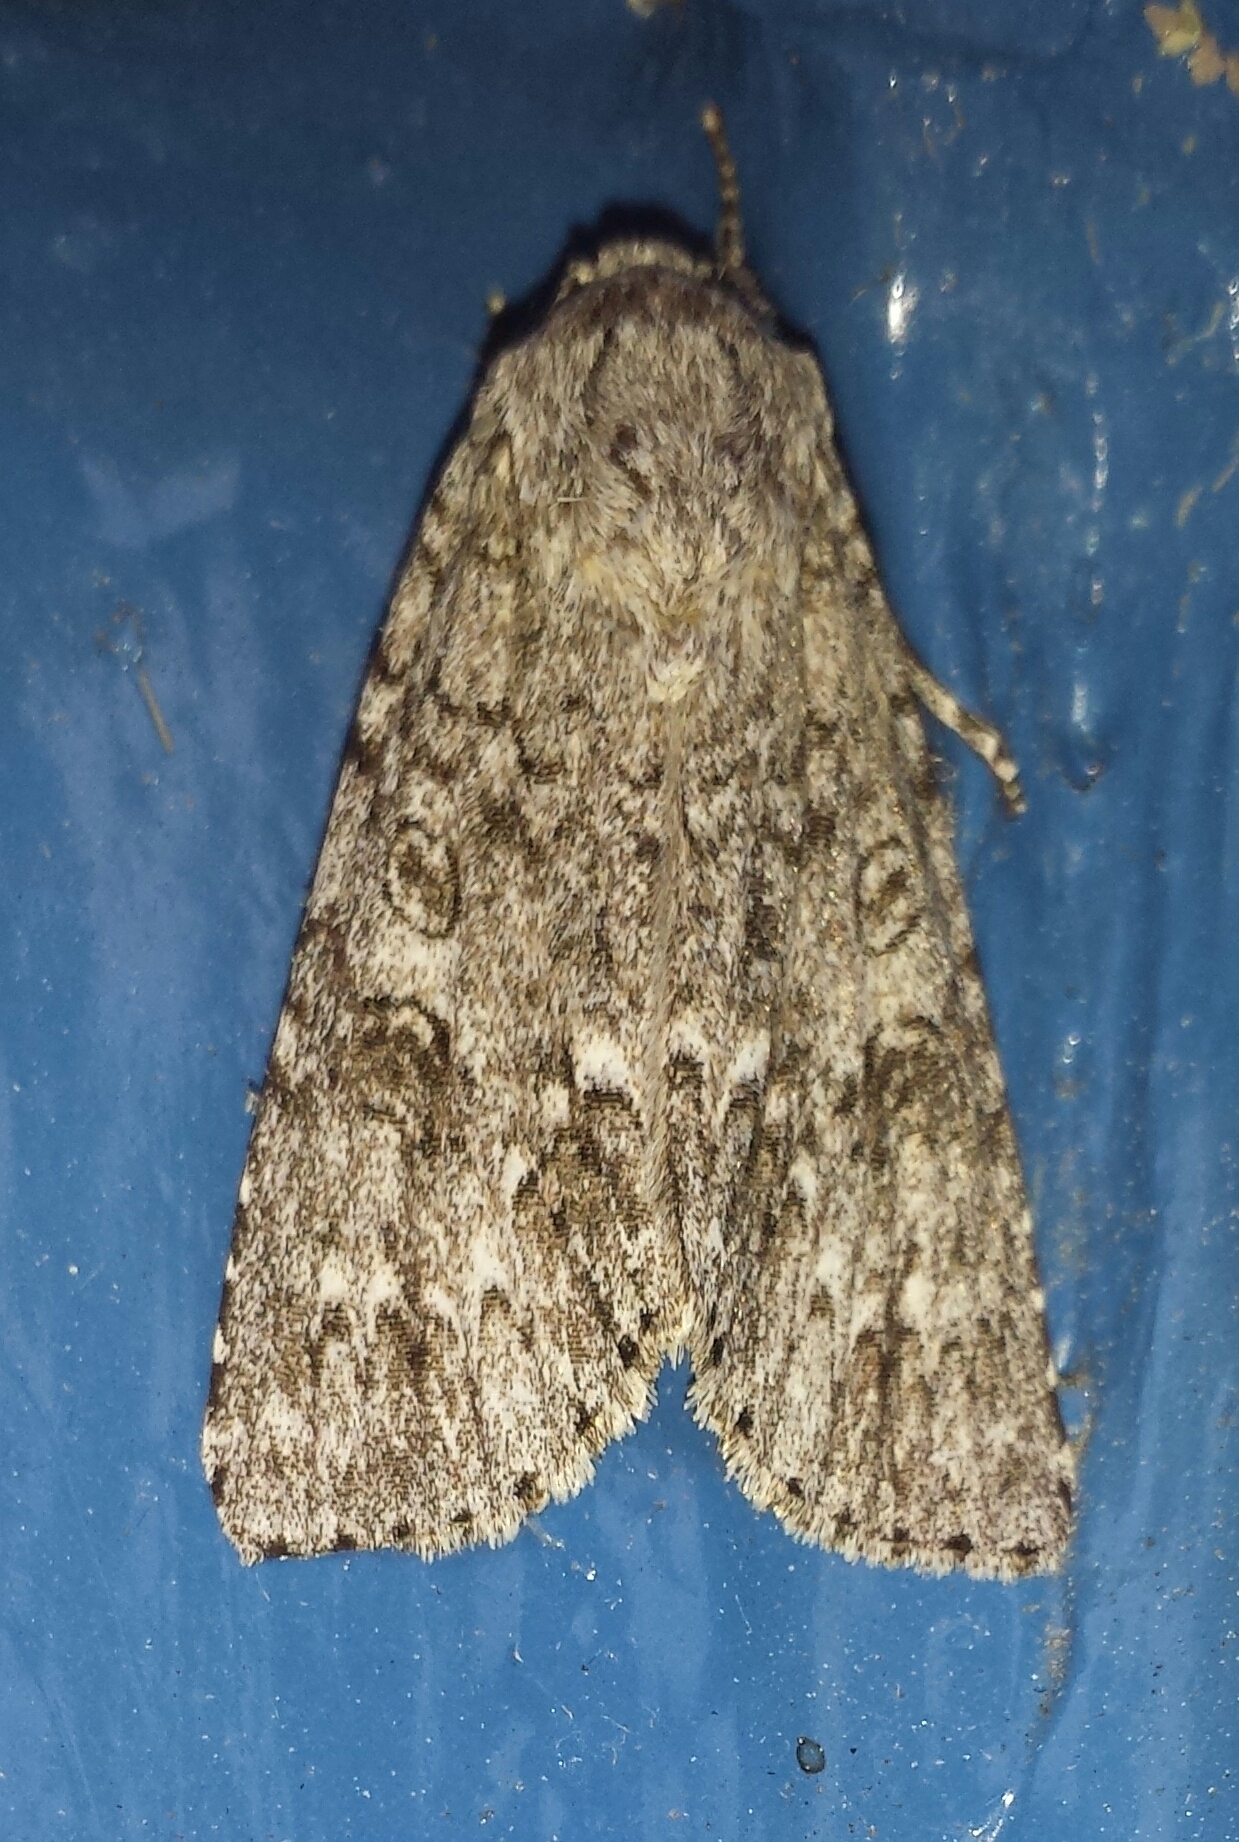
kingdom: Animalia
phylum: Arthropoda
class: Insecta
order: Lepidoptera
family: Noctuidae
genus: Acronicta
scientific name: Acronicta impleta
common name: Powdered dagger
